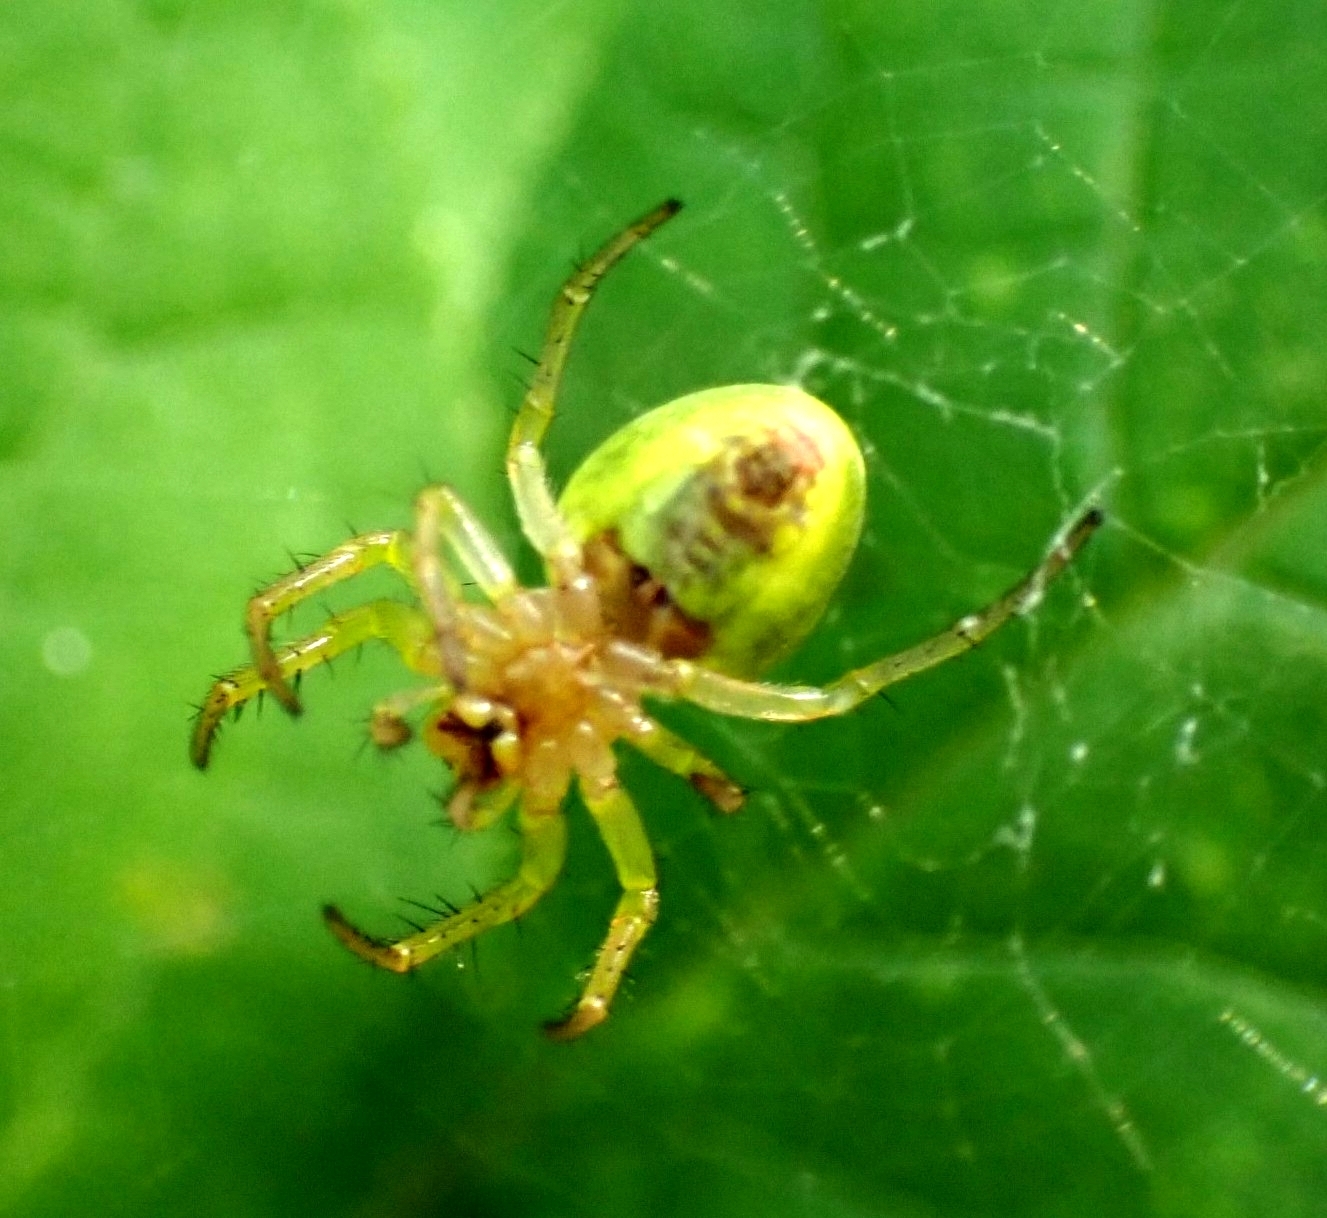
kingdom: Animalia
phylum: Arthropoda
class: Arachnida
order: Araneae
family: Araneidae
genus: Araniella
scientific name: Araniella cucurbitina
